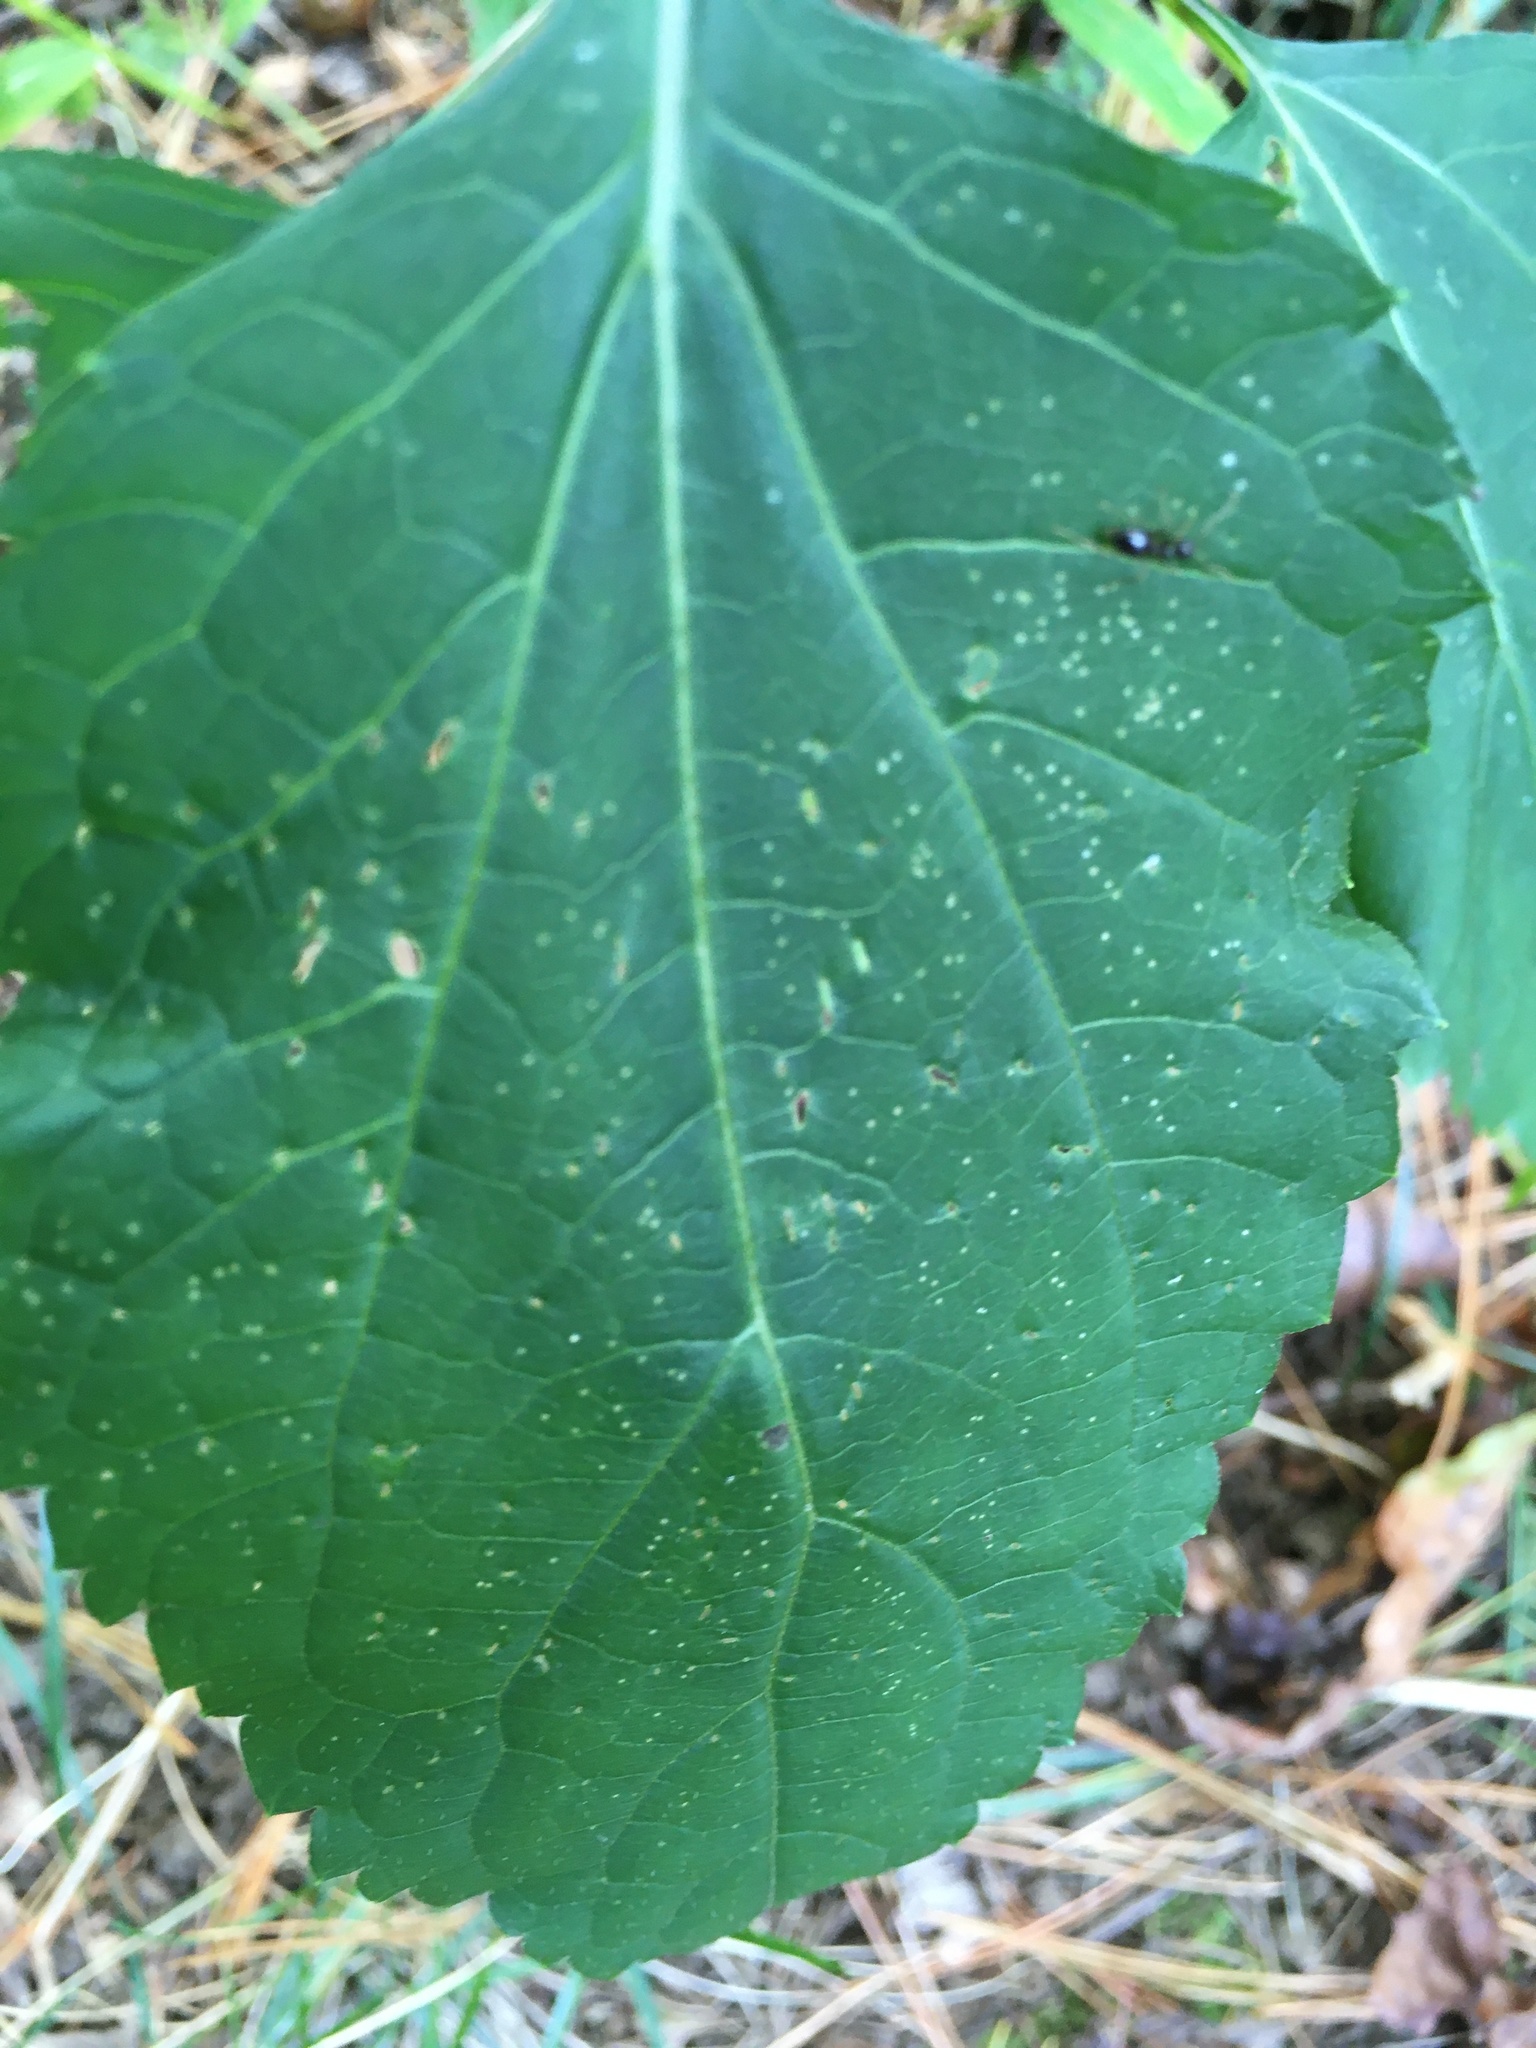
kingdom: Plantae
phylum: Tracheophyta
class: Magnoliopsida
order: Asterales
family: Asteraceae
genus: Ageratina
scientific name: Ageratina altissima
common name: White snakeroot
